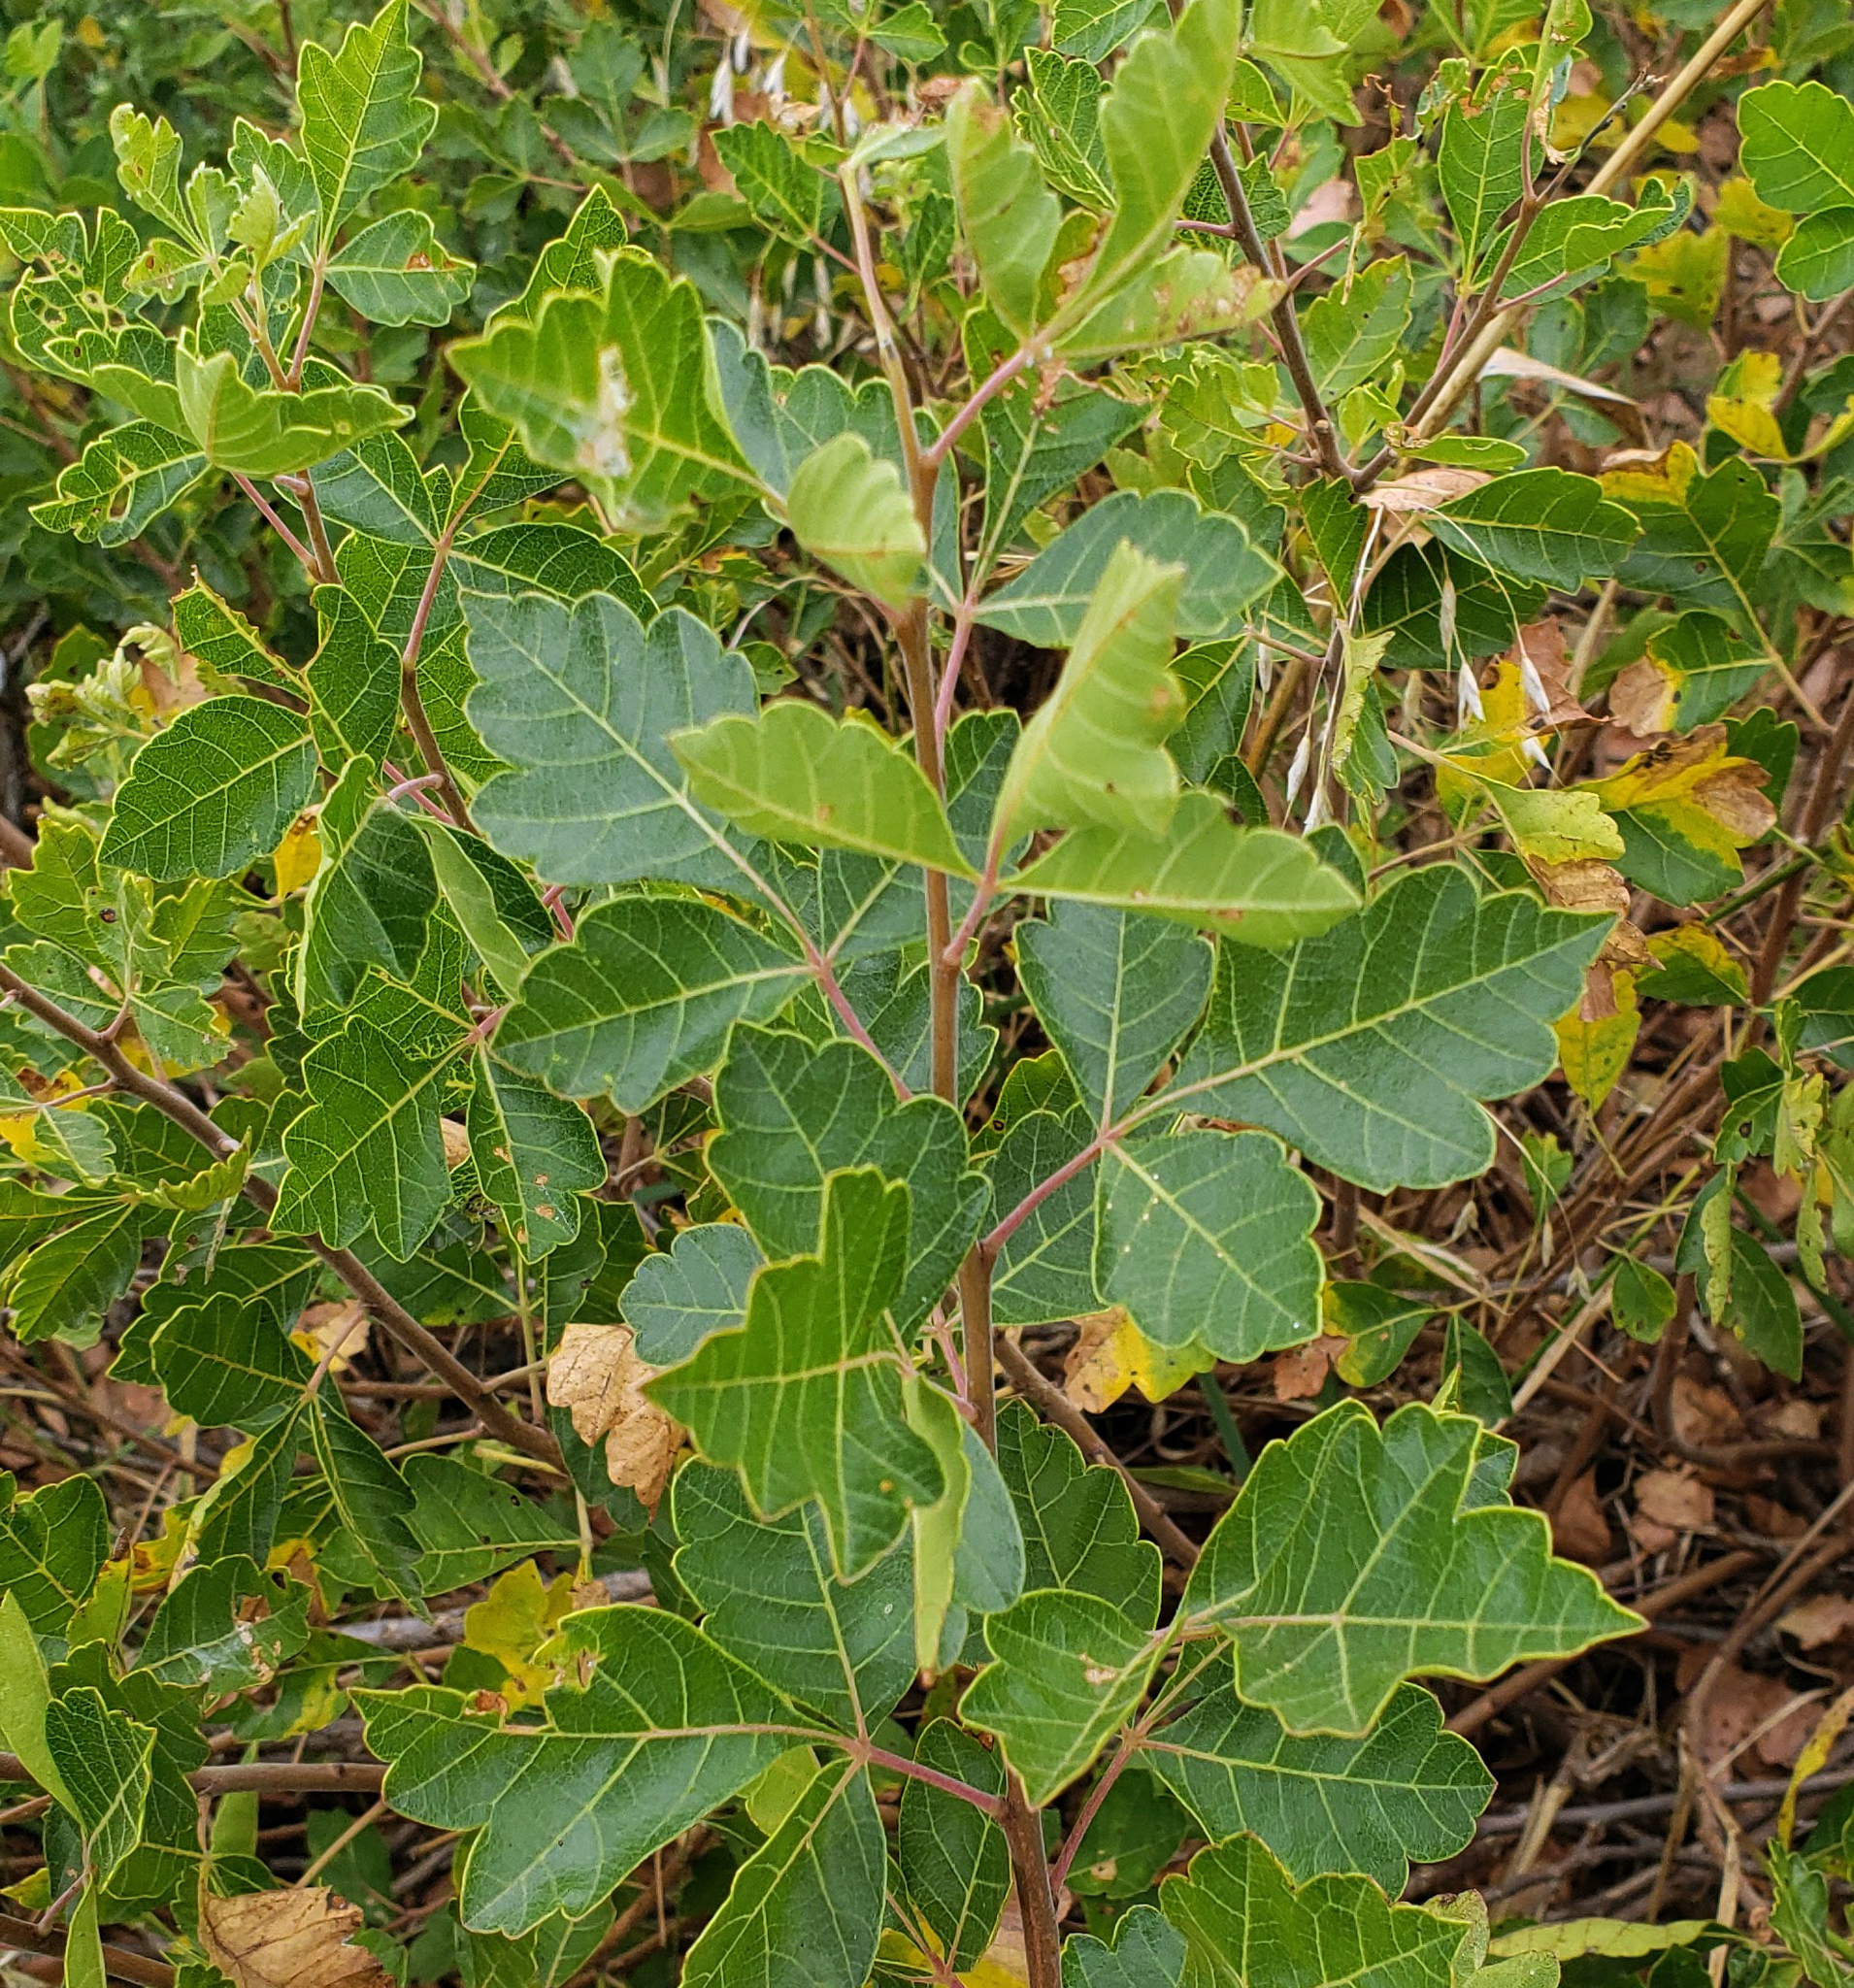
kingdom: Plantae
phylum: Tracheophyta
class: Magnoliopsida
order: Sapindales
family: Anacardiaceae
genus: Rhus
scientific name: Rhus aromatica
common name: Aromatic sumac
